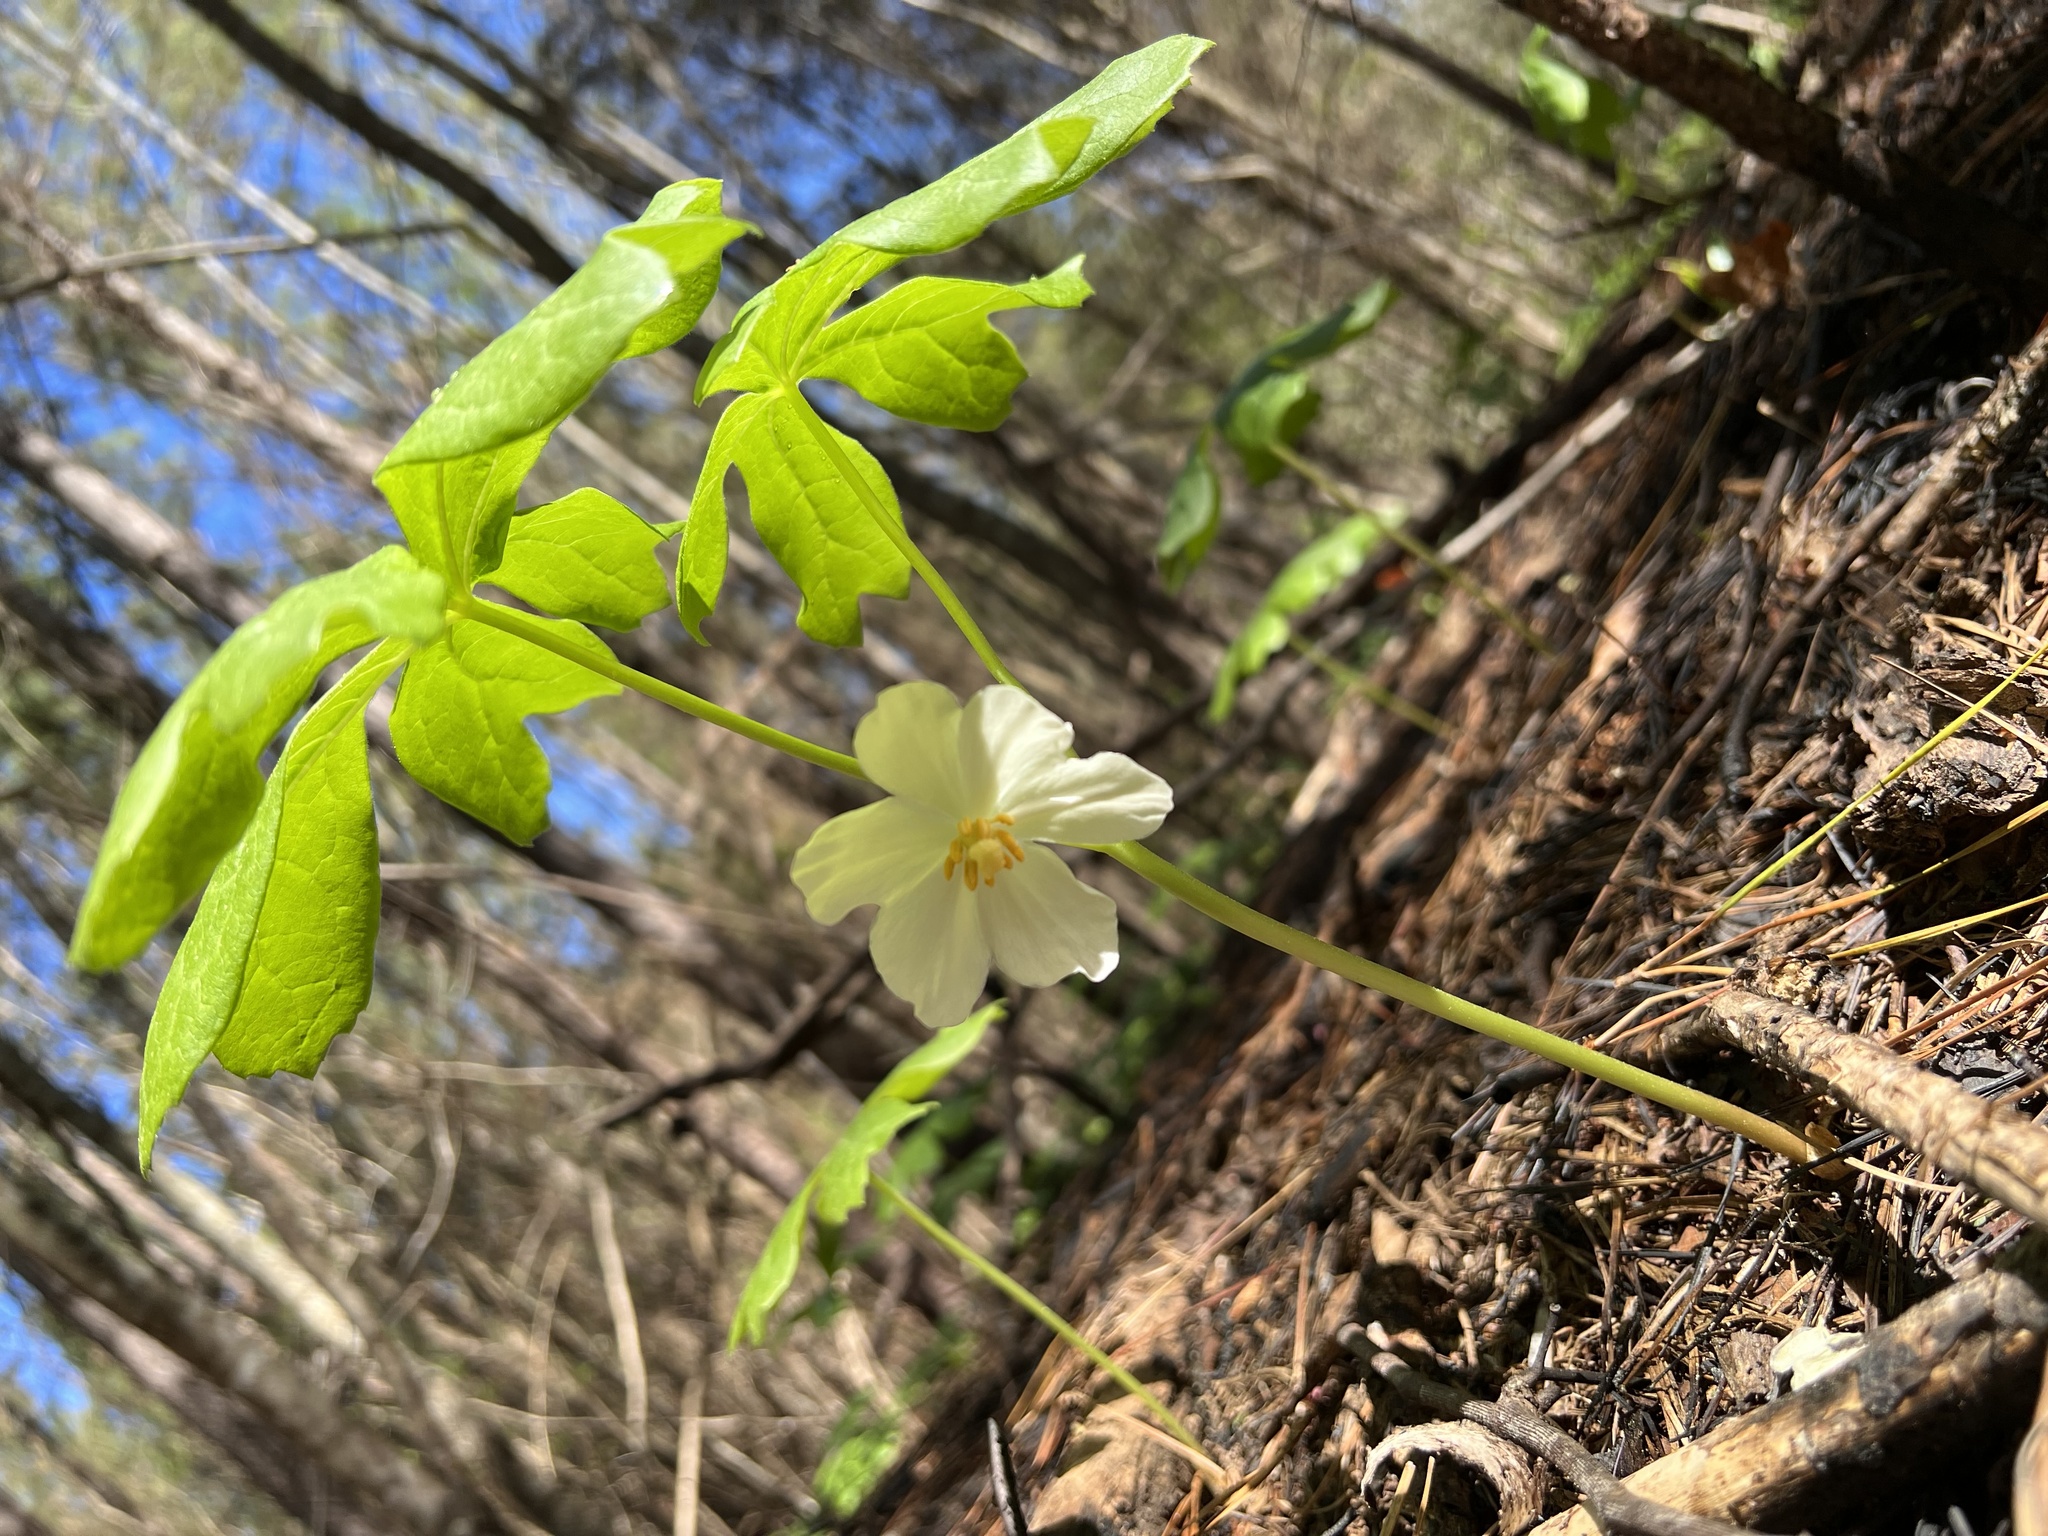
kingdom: Plantae
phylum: Tracheophyta
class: Magnoliopsida
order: Ranunculales
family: Berberidaceae
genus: Podophyllum
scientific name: Podophyllum peltatum
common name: Wild mandrake
